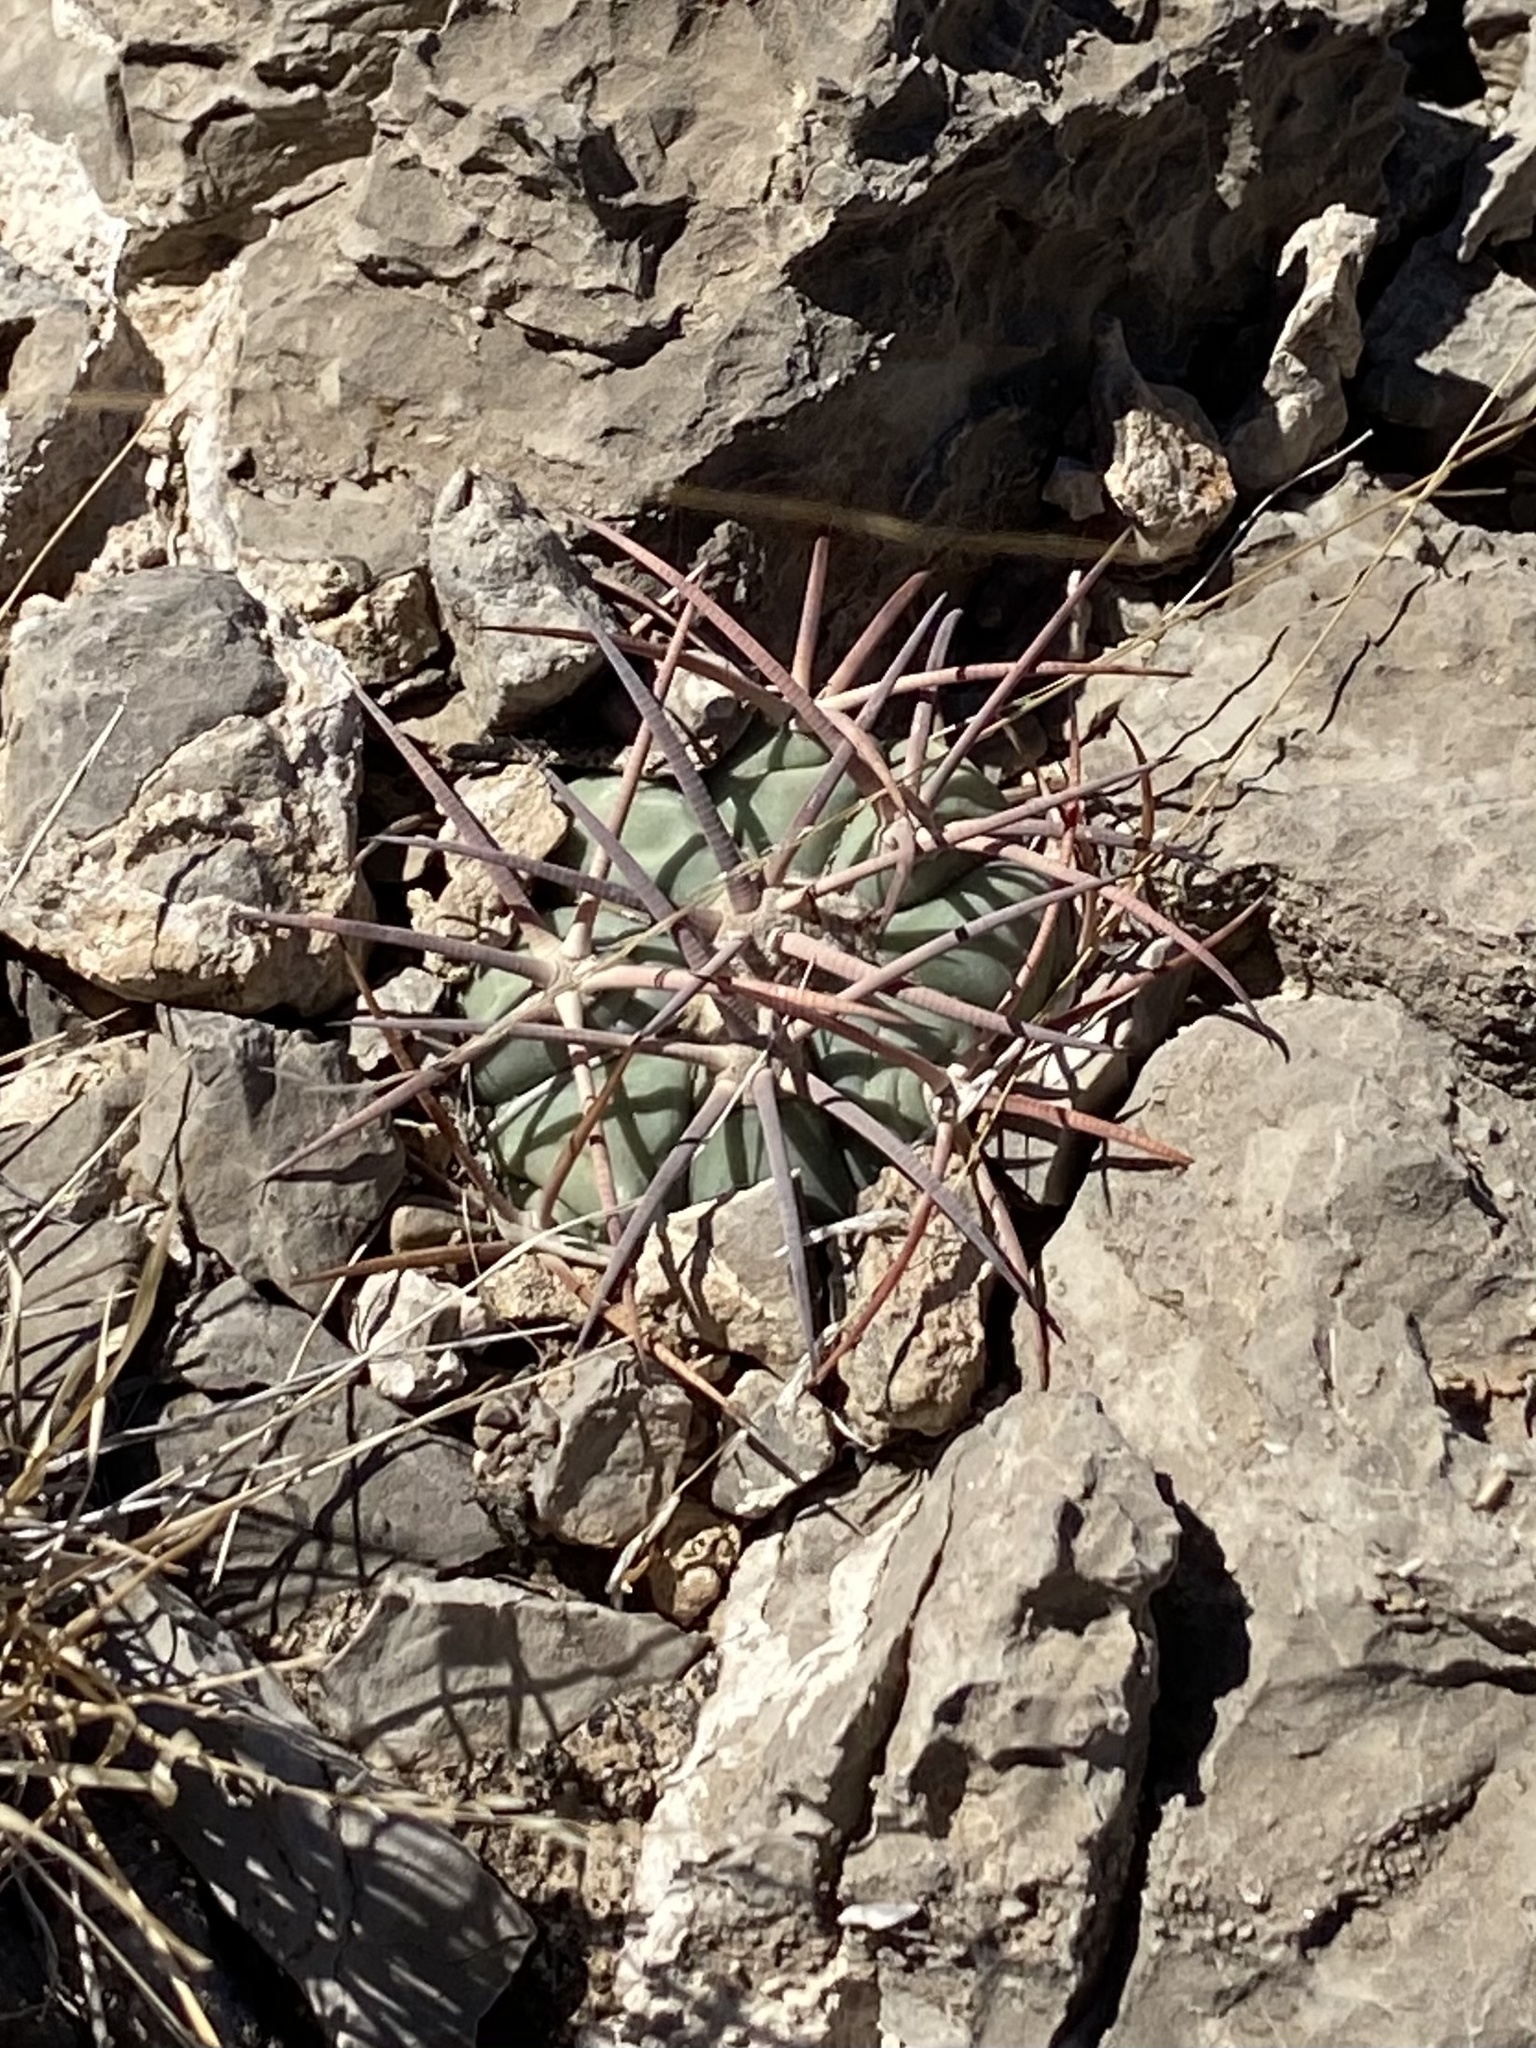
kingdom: Plantae
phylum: Tracheophyta
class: Magnoliopsida
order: Caryophyllales
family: Cactaceae
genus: Echinocactus
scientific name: Echinocactus horizonthalonius
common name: Devilshead
